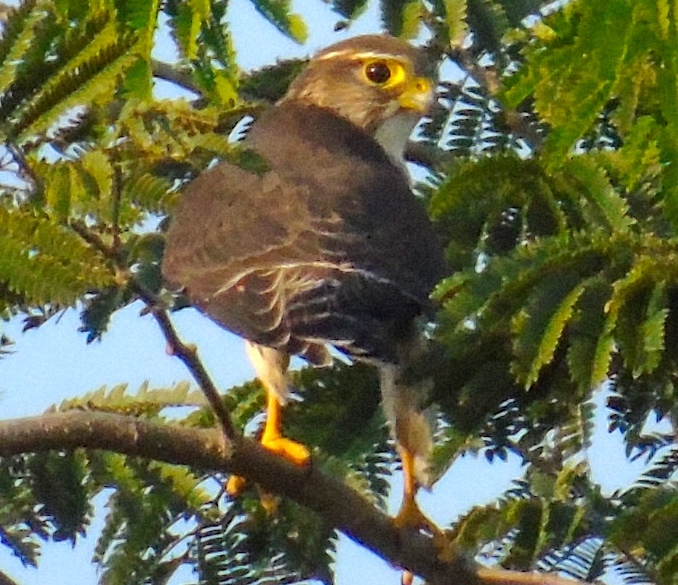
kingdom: Animalia
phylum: Chordata
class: Aves
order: Falconiformes
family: Falconidae
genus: Falco
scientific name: Falco columbarius
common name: Merlin
